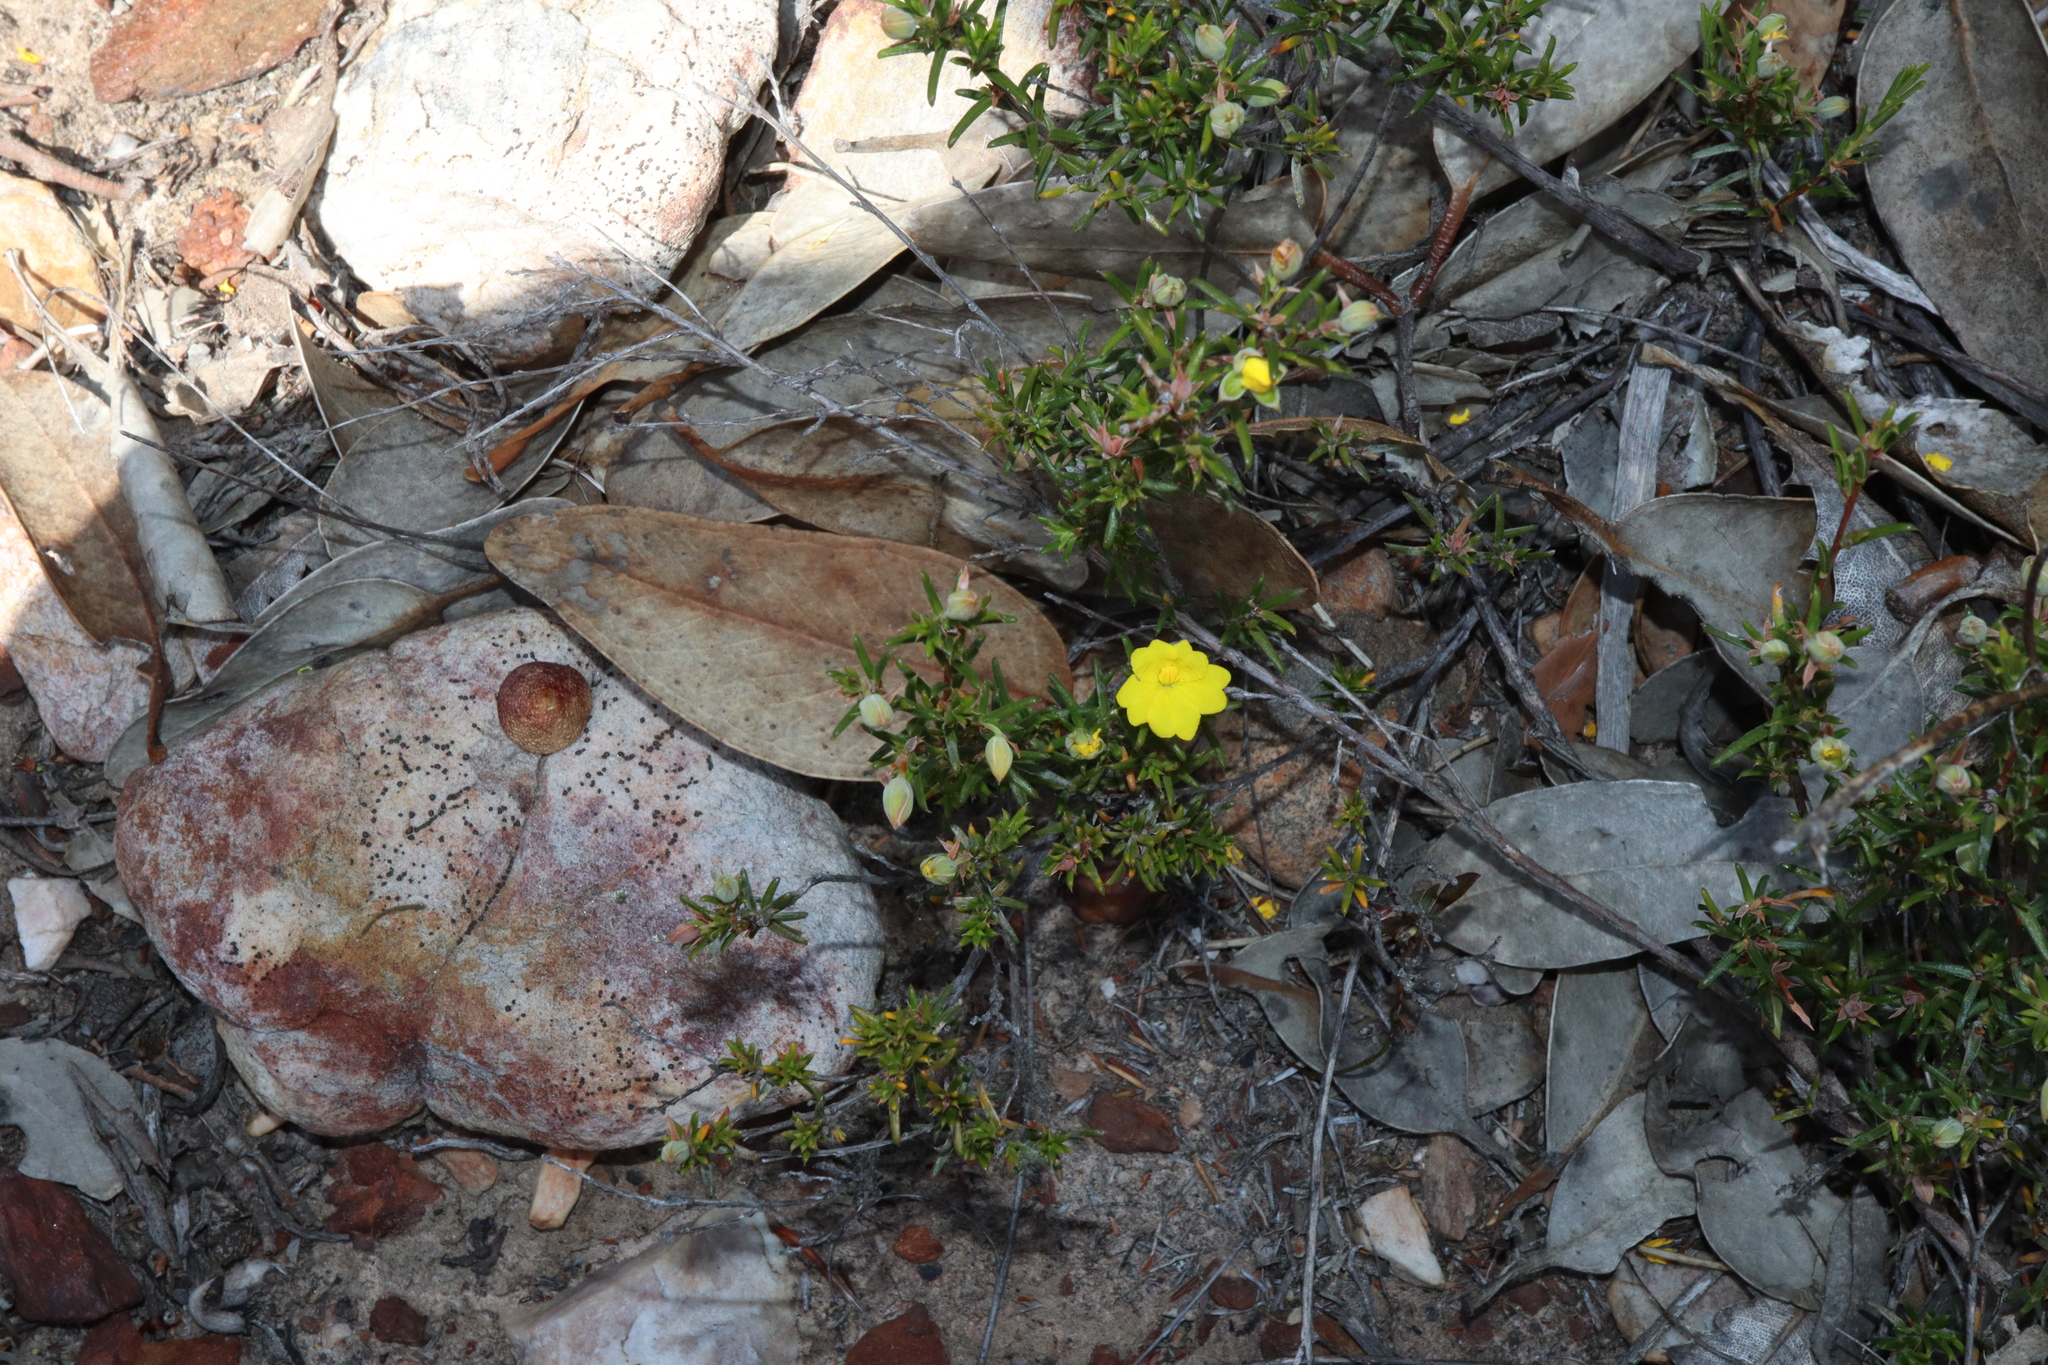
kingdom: Plantae
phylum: Tracheophyta
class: Magnoliopsida
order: Dilleniales
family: Dilleniaceae
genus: Hibbertia
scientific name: Hibbertia lineata
